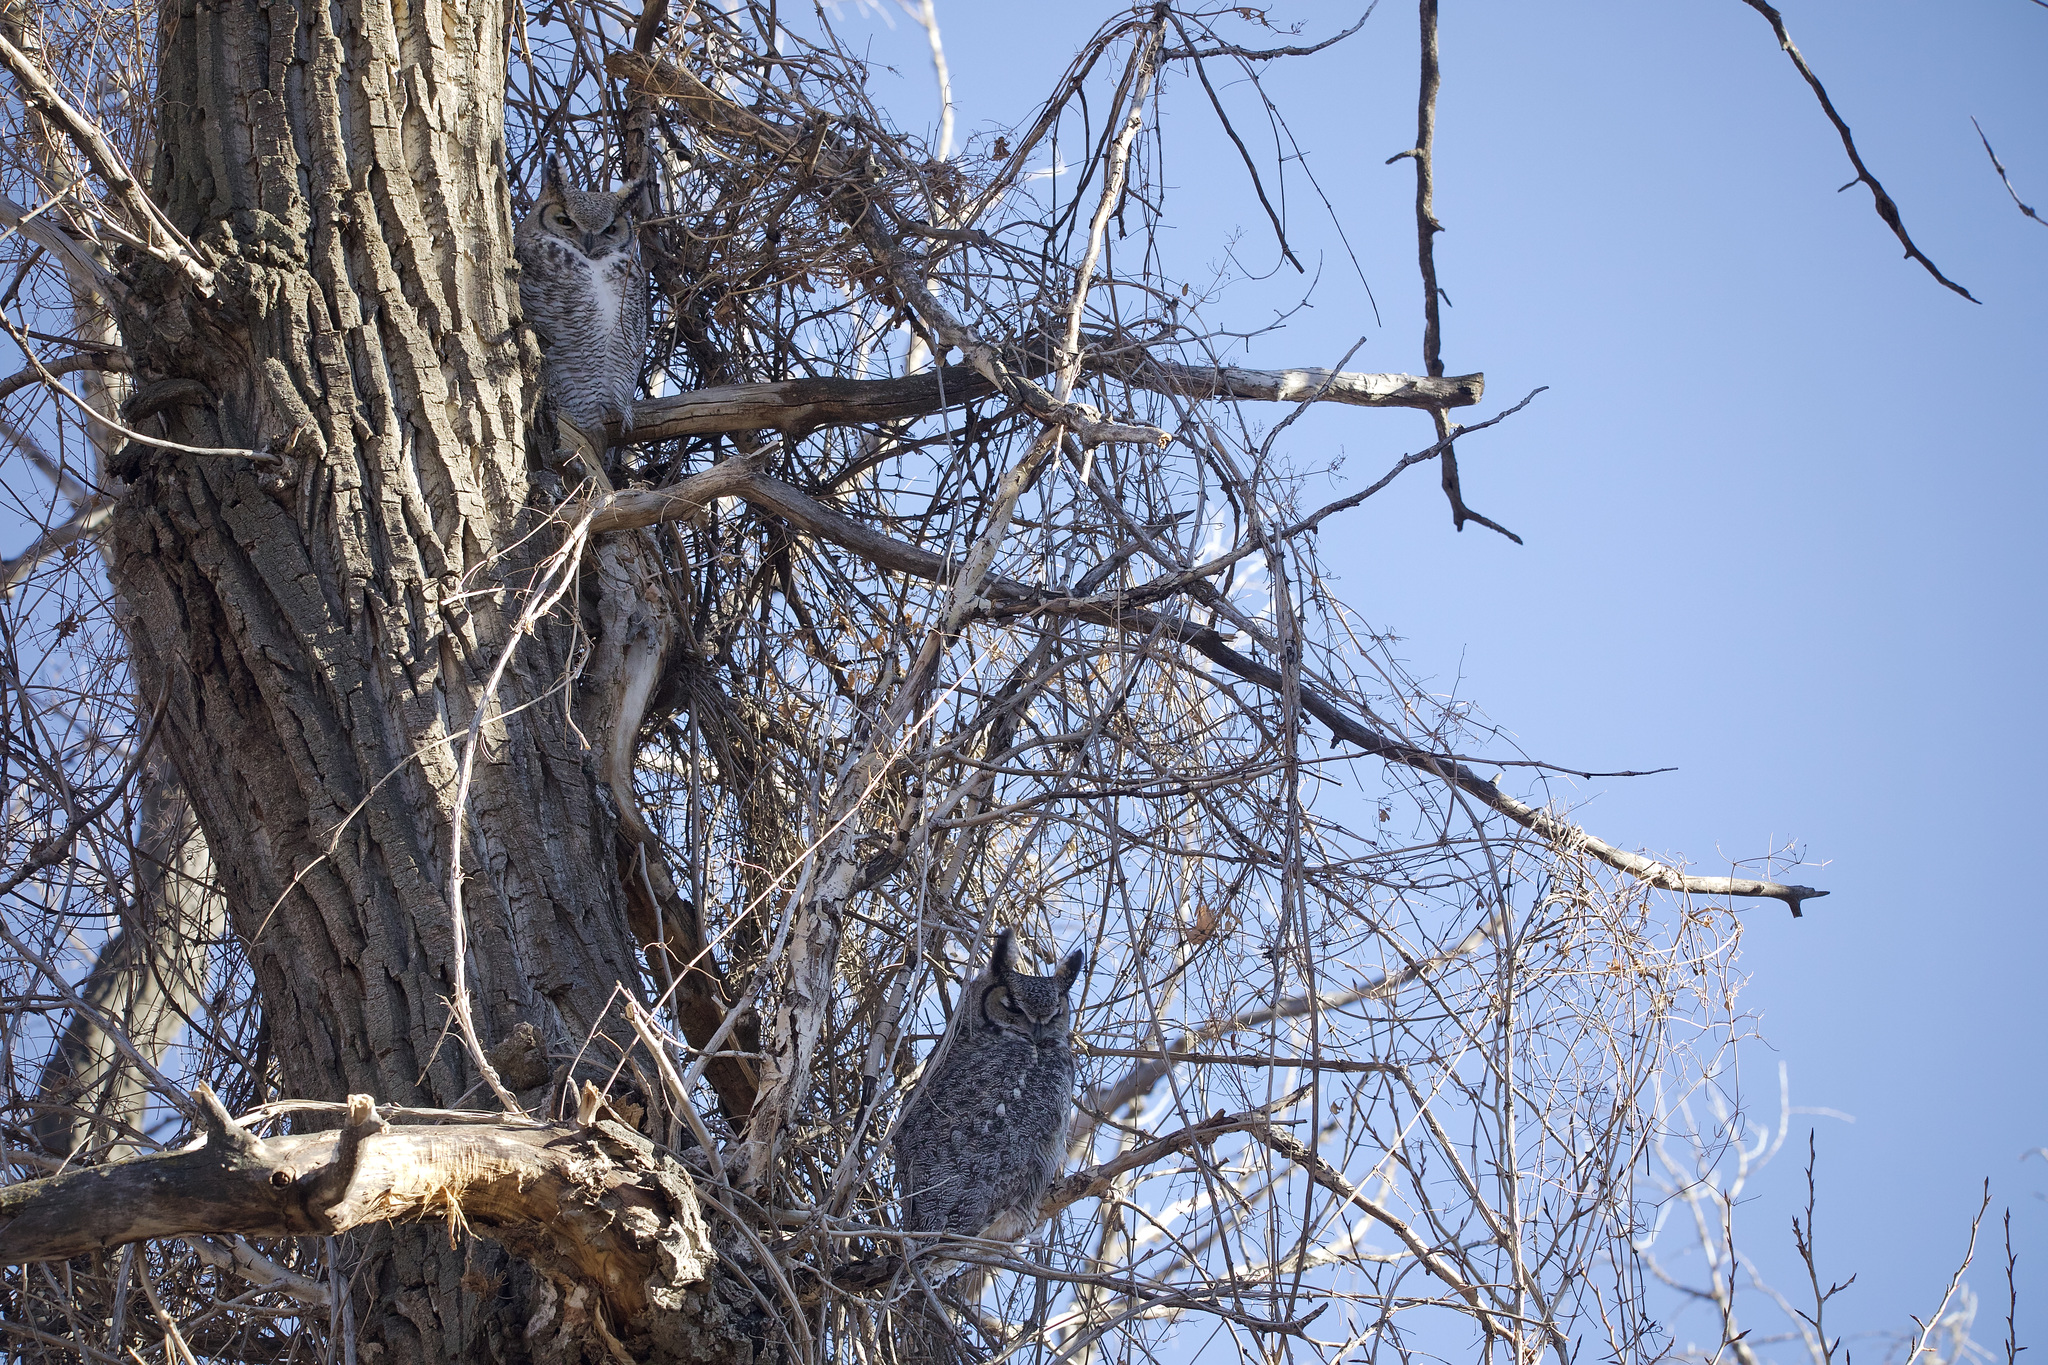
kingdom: Animalia
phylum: Chordata
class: Aves
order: Strigiformes
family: Strigidae
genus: Bubo
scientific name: Bubo virginianus
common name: Great horned owl
